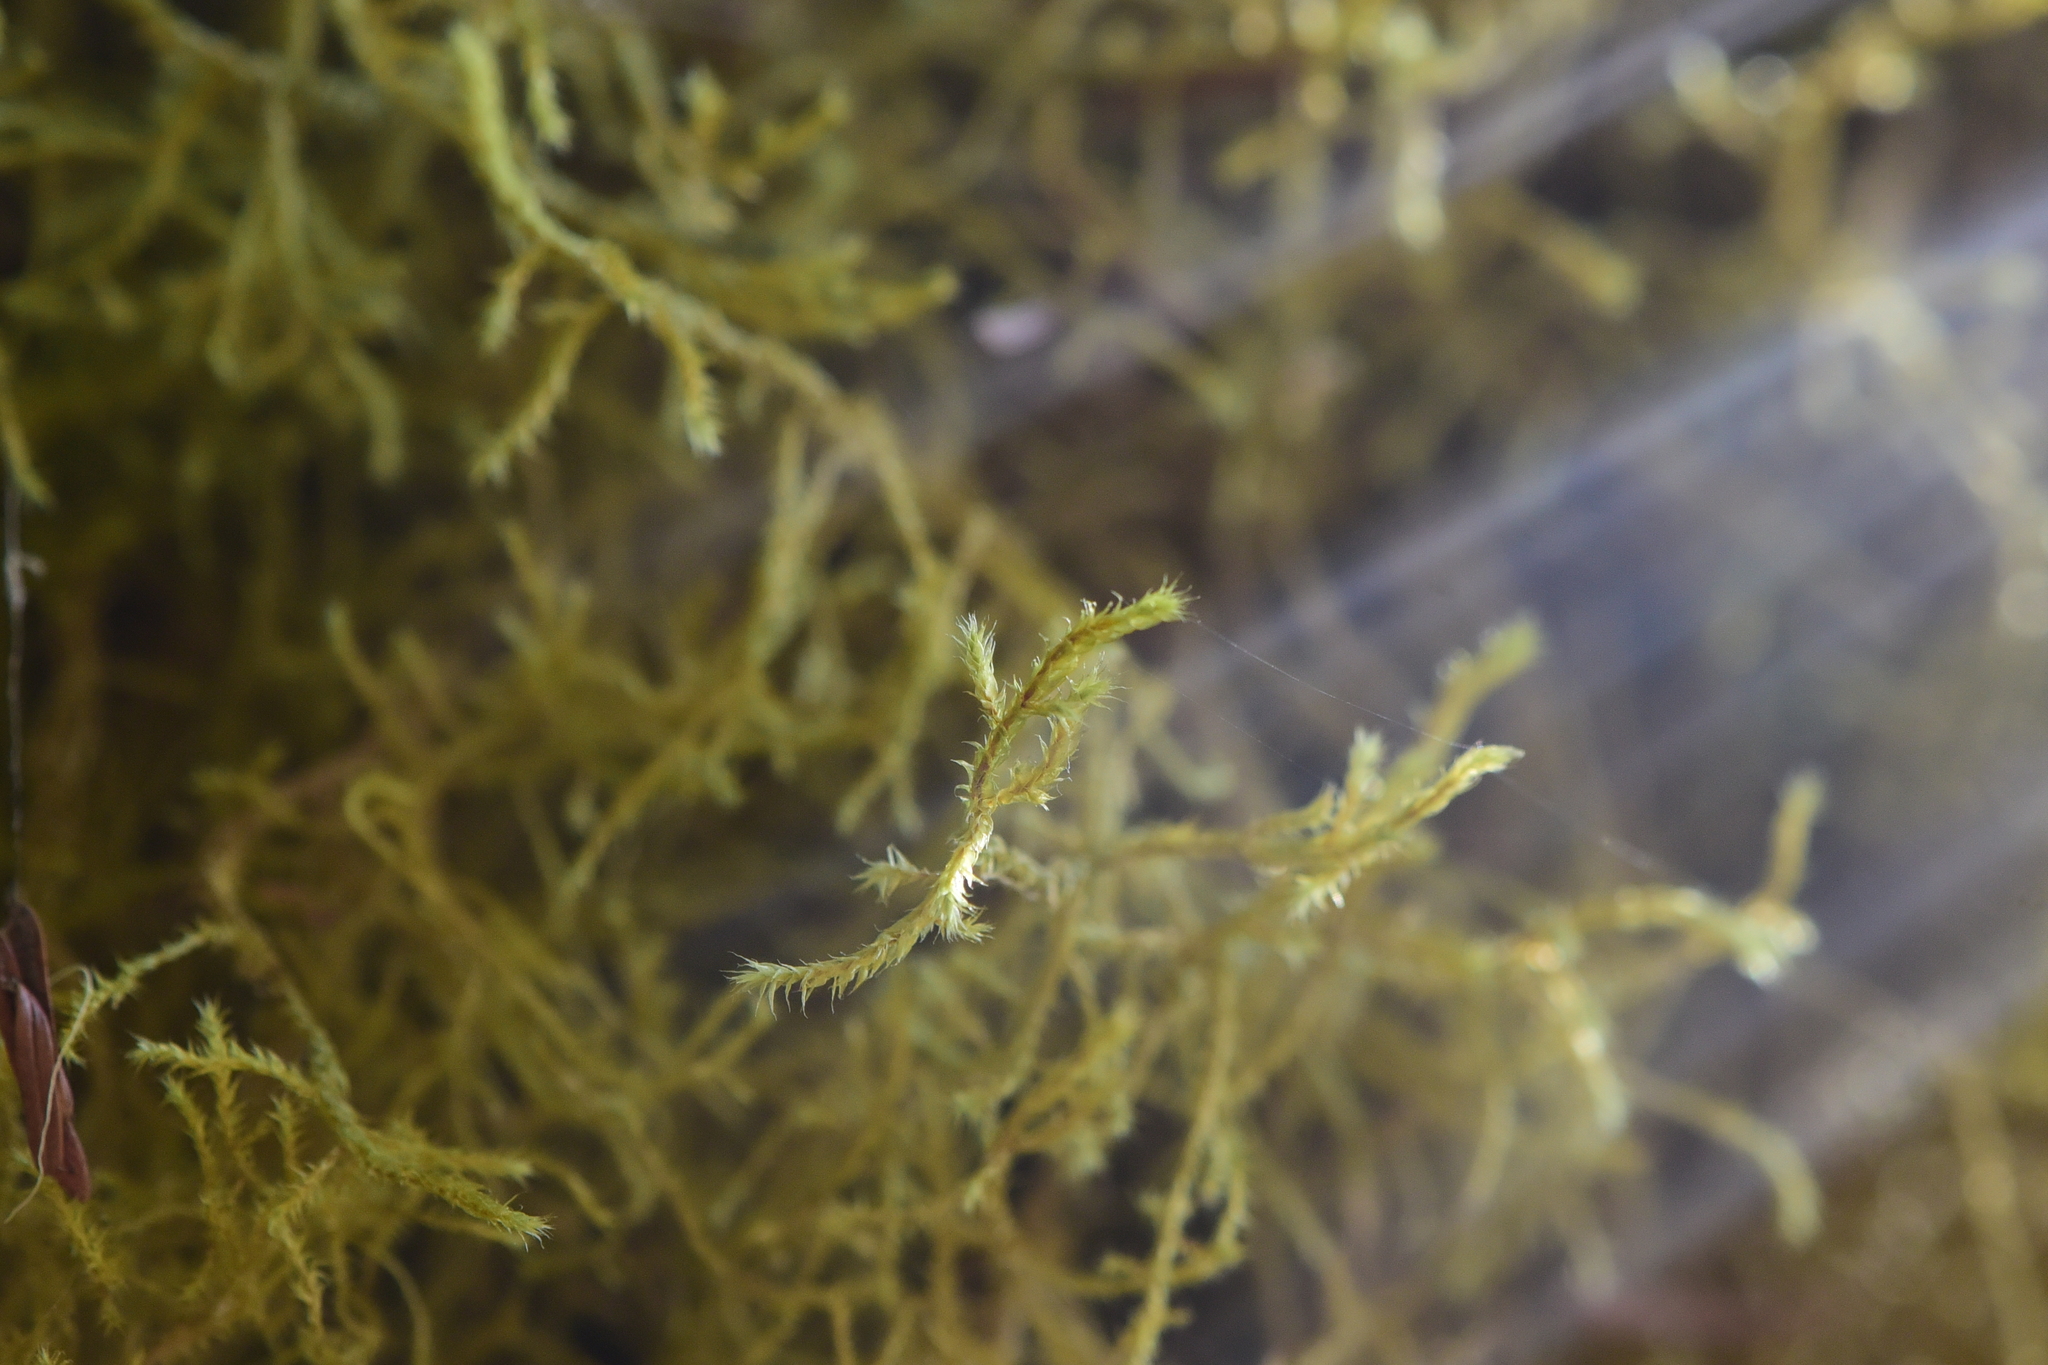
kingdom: Plantae
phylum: Bryophyta
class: Bryopsida
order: Hypnales
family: Antitrichiaceae
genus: Antitrichia
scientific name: Antitrichia curtipendula
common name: Pendulous wing-moss
